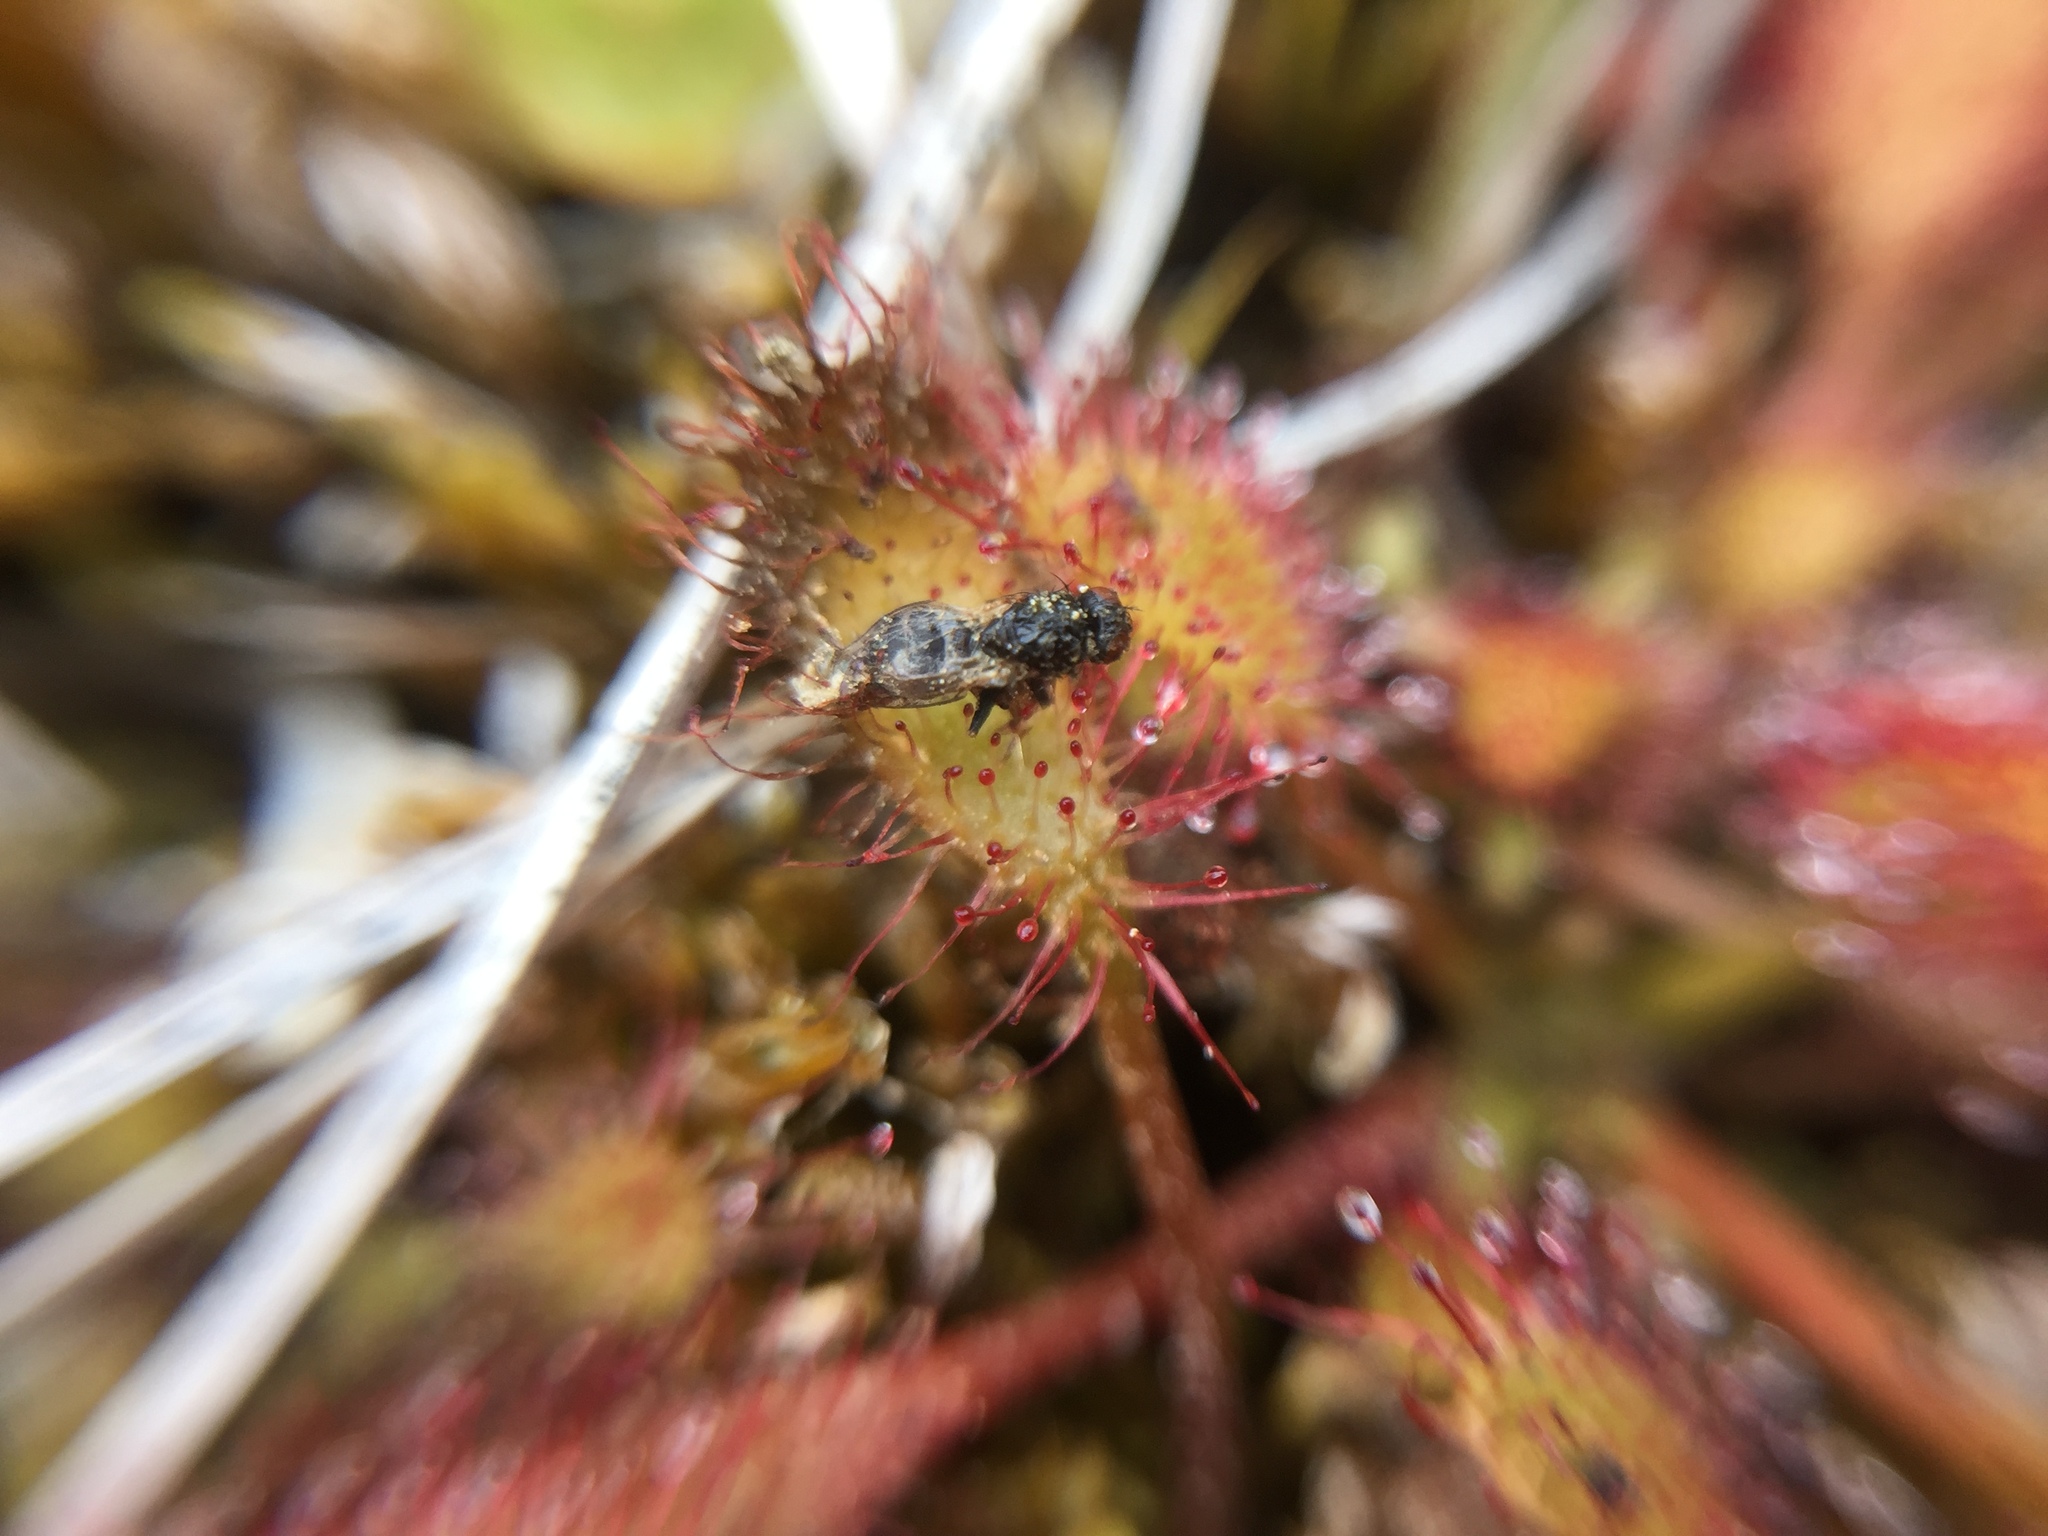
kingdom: Plantae
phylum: Tracheophyta
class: Magnoliopsida
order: Caryophyllales
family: Droseraceae
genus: Drosera
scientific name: Drosera anglica
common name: Great sundew
